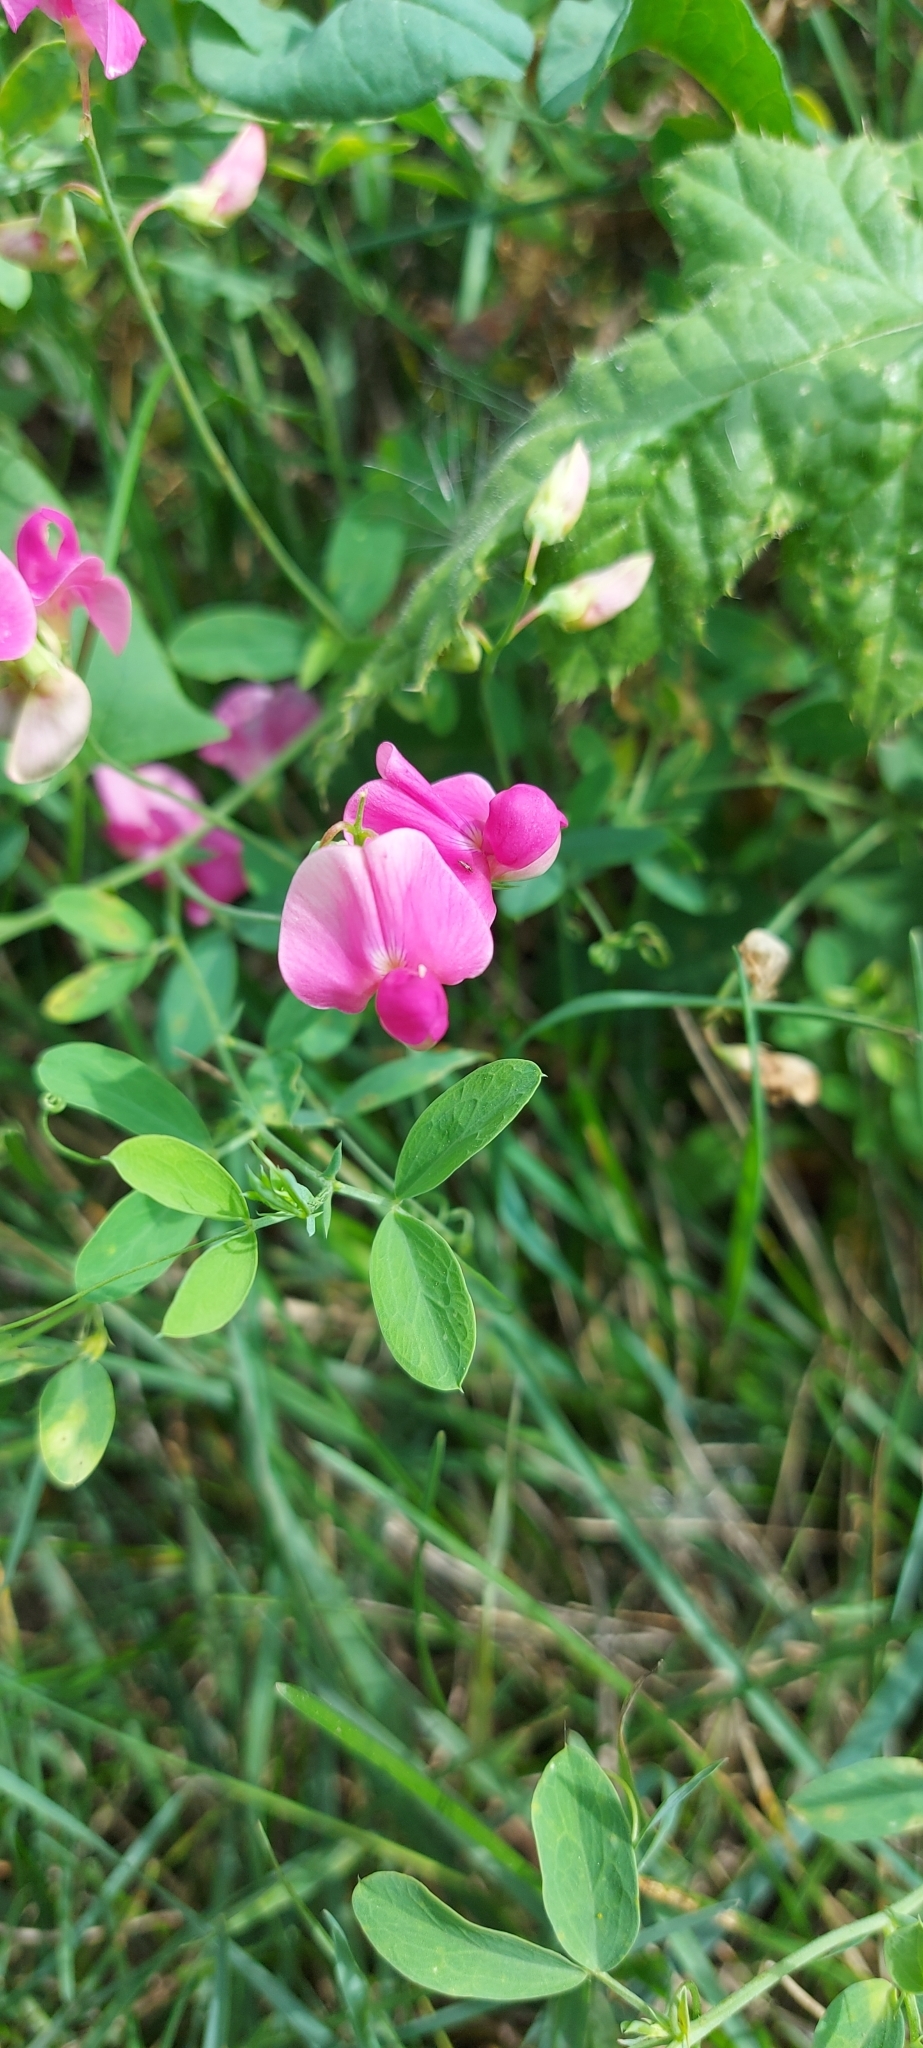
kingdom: Plantae
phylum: Tracheophyta
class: Magnoliopsida
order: Fabales
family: Fabaceae
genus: Lathyrus
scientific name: Lathyrus tuberosus
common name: Tuberous pea
